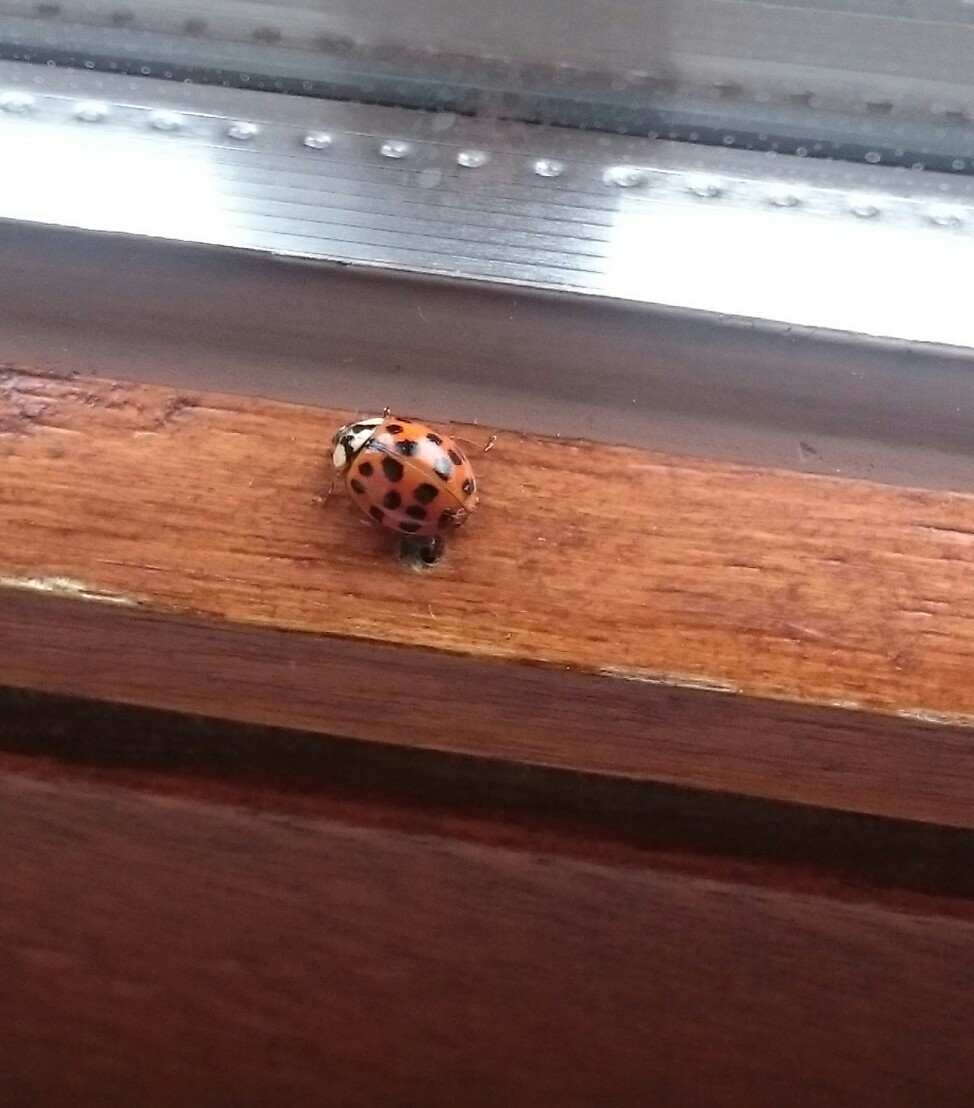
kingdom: Animalia
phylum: Arthropoda
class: Insecta
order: Coleoptera
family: Coccinellidae
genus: Harmonia
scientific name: Harmonia axyridis
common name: Harlequin ladybird
